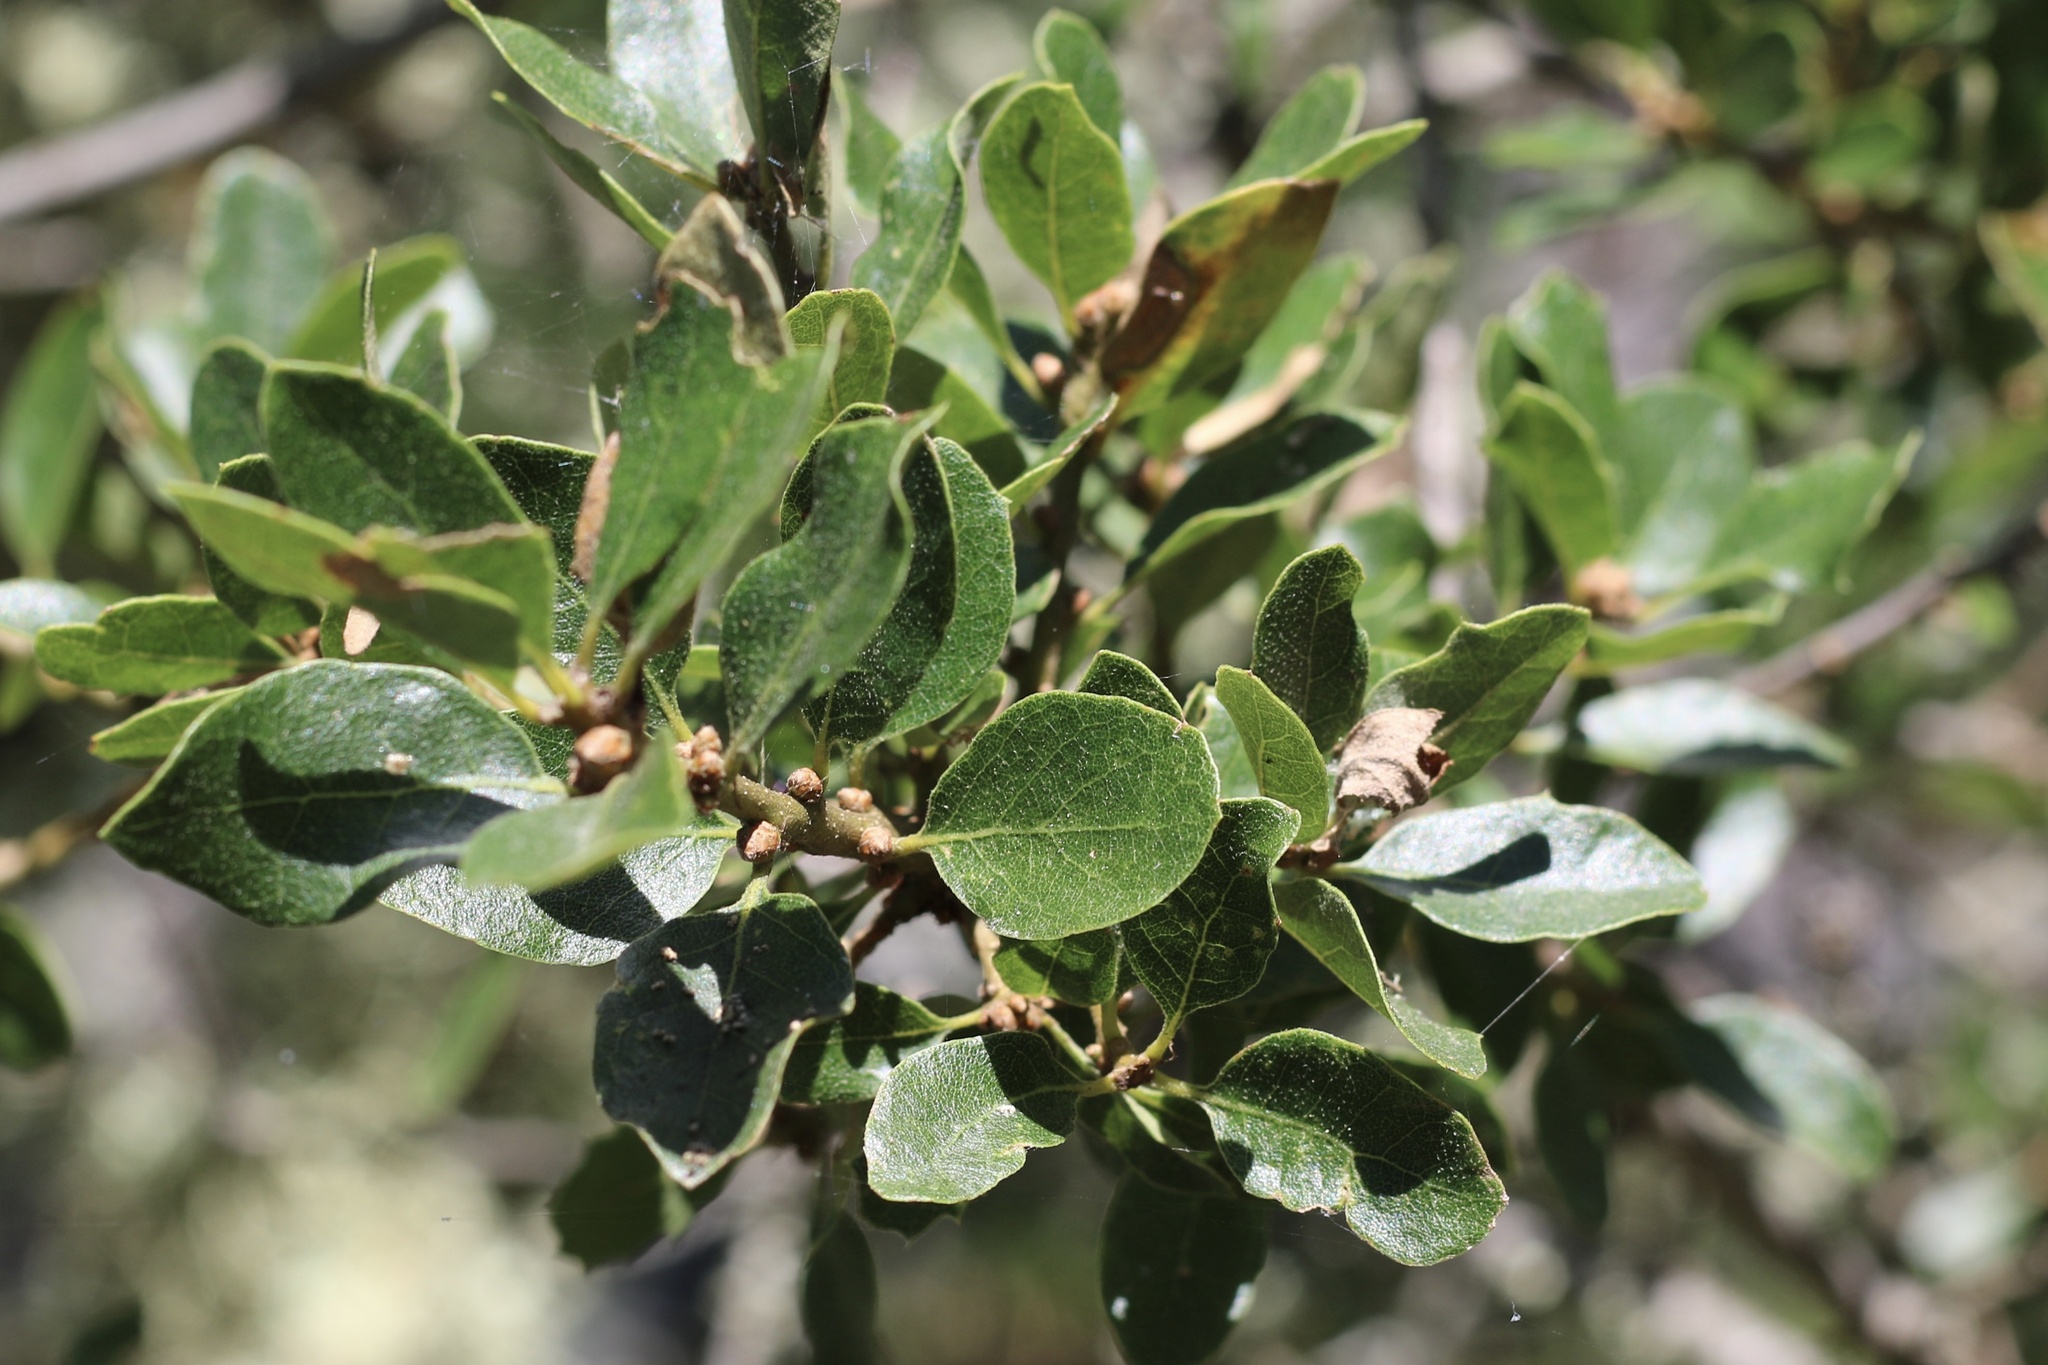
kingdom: Plantae
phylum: Tracheophyta
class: Magnoliopsida
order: Fagales
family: Fagaceae
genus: Quercus
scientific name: Quercus pacifica
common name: Channel island scrub oak
